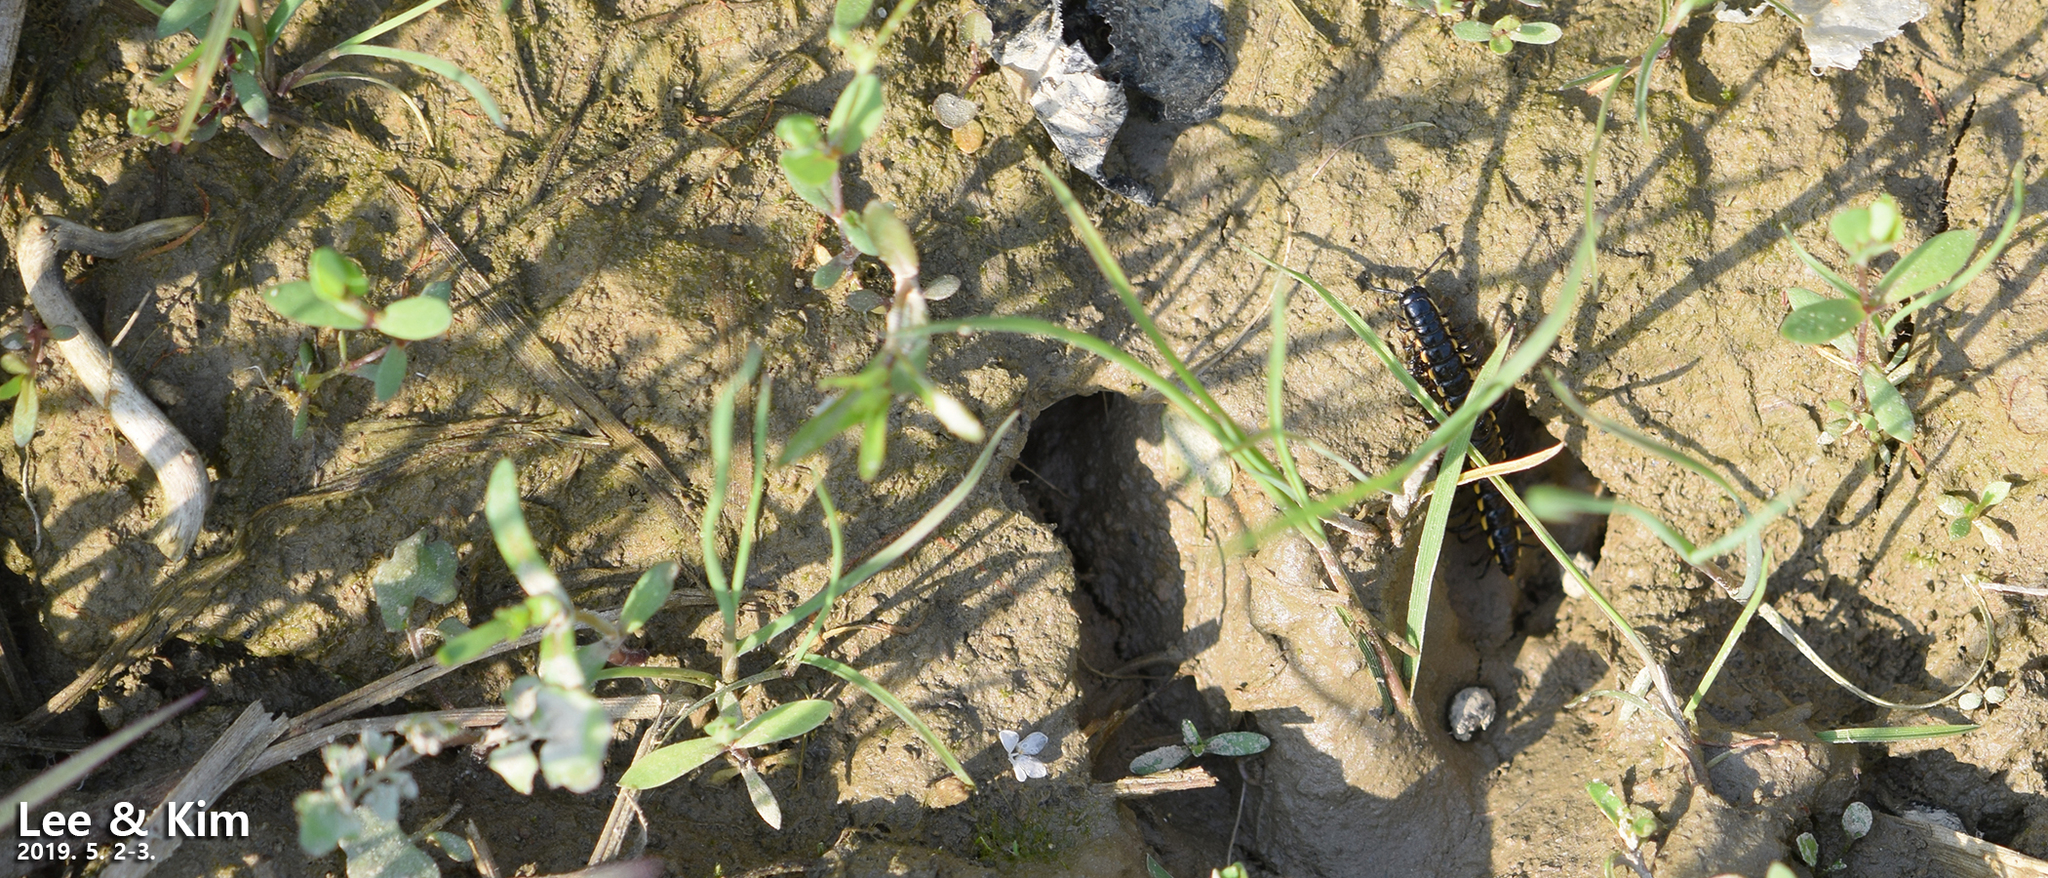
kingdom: Animalia
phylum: Arthropoda
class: Diplopoda
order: Polydesmida
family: Paradoxosomatidae
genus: Orthomorphella
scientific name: Orthomorphella pekuensis
